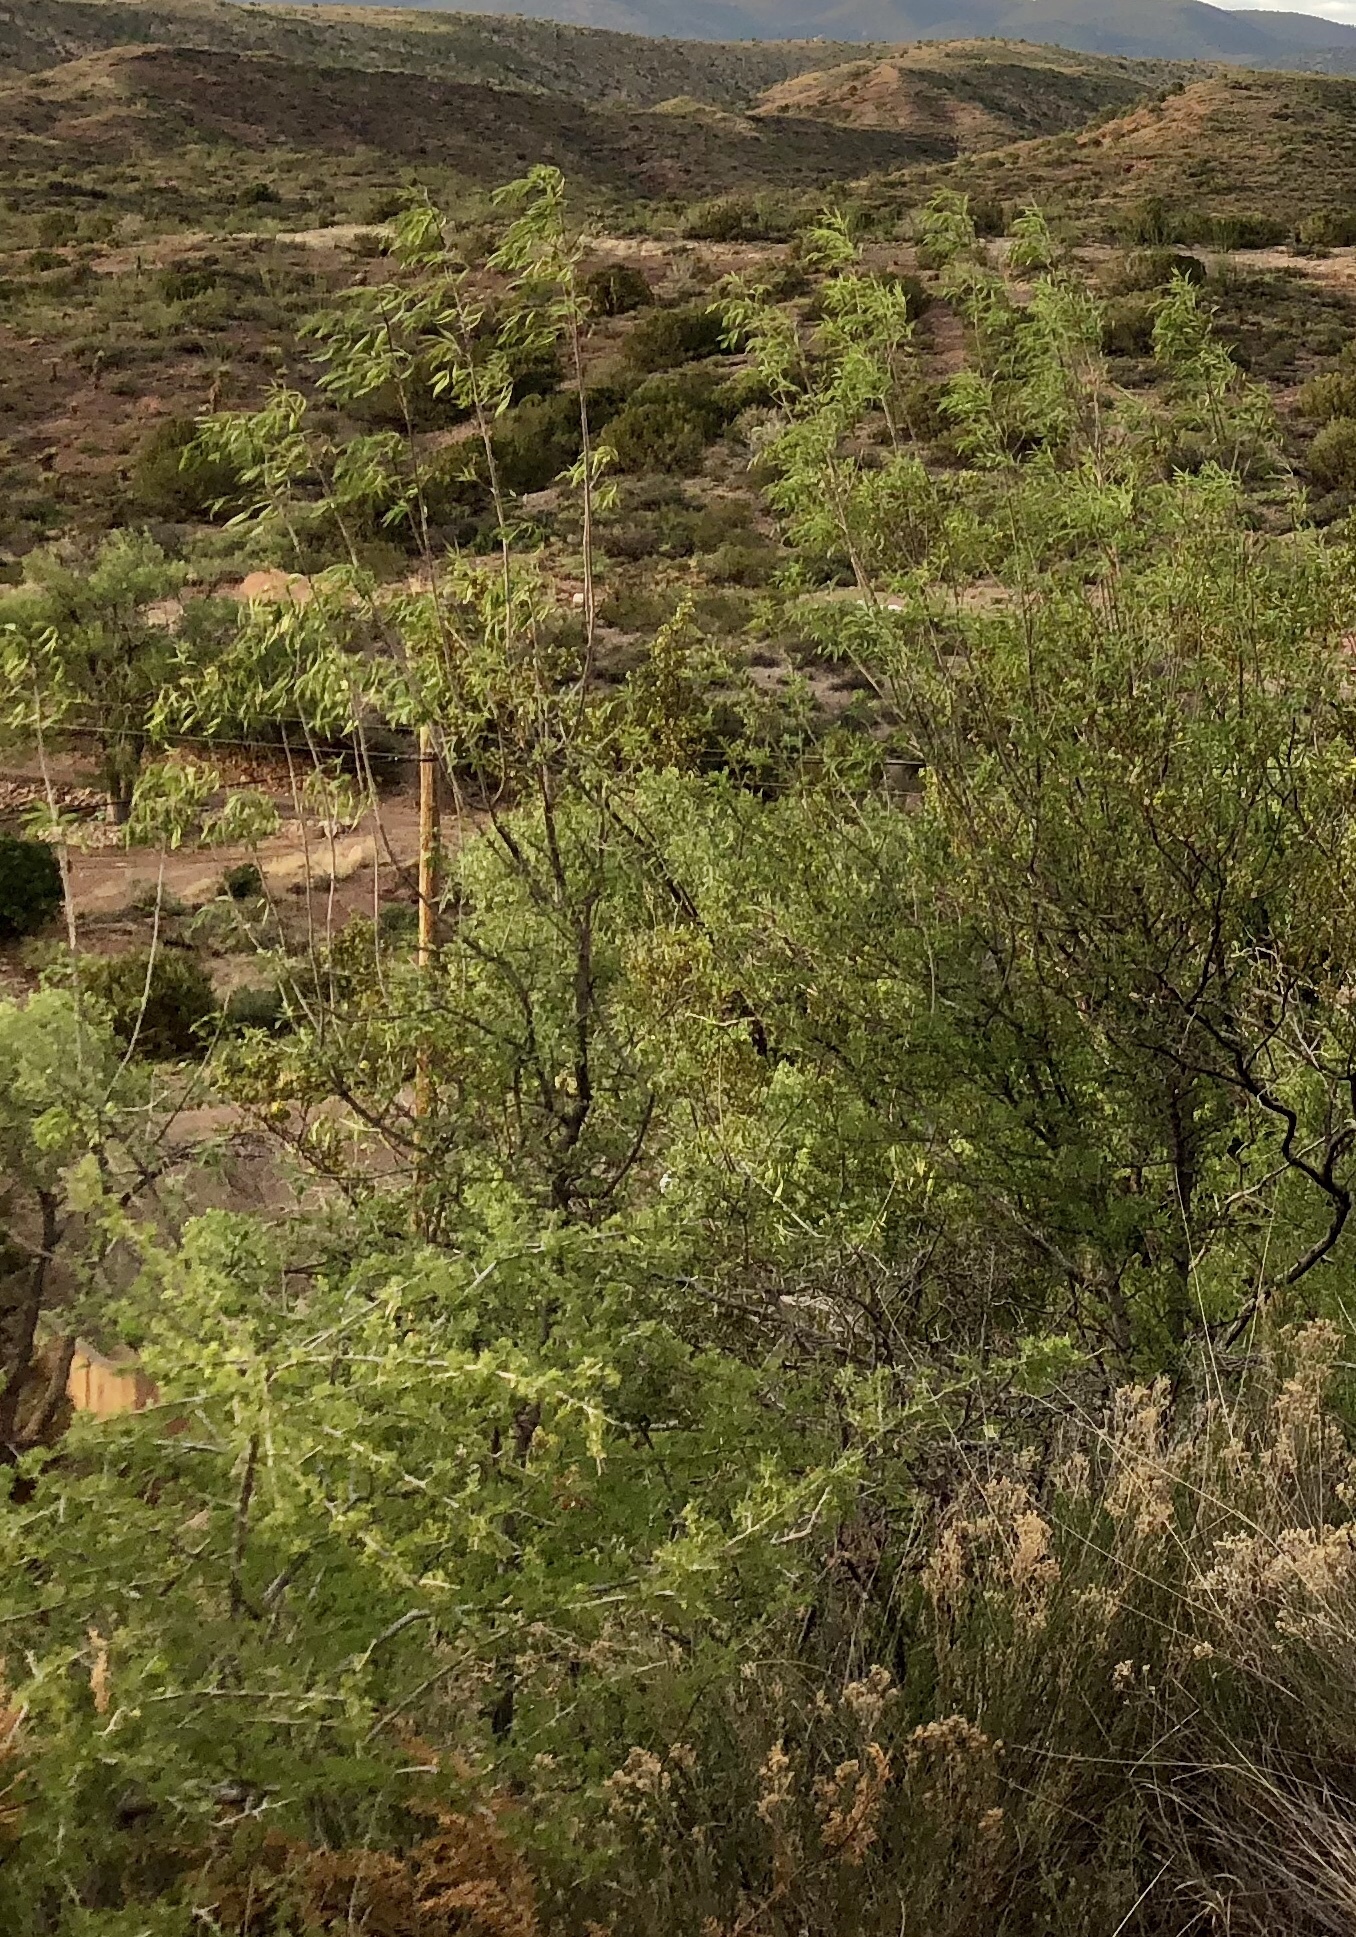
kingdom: Plantae
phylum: Tracheophyta
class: Magnoliopsida
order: Fabales
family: Fabaceae
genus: Prosopis
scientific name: Prosopis glandulosa
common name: Honey mesquite
